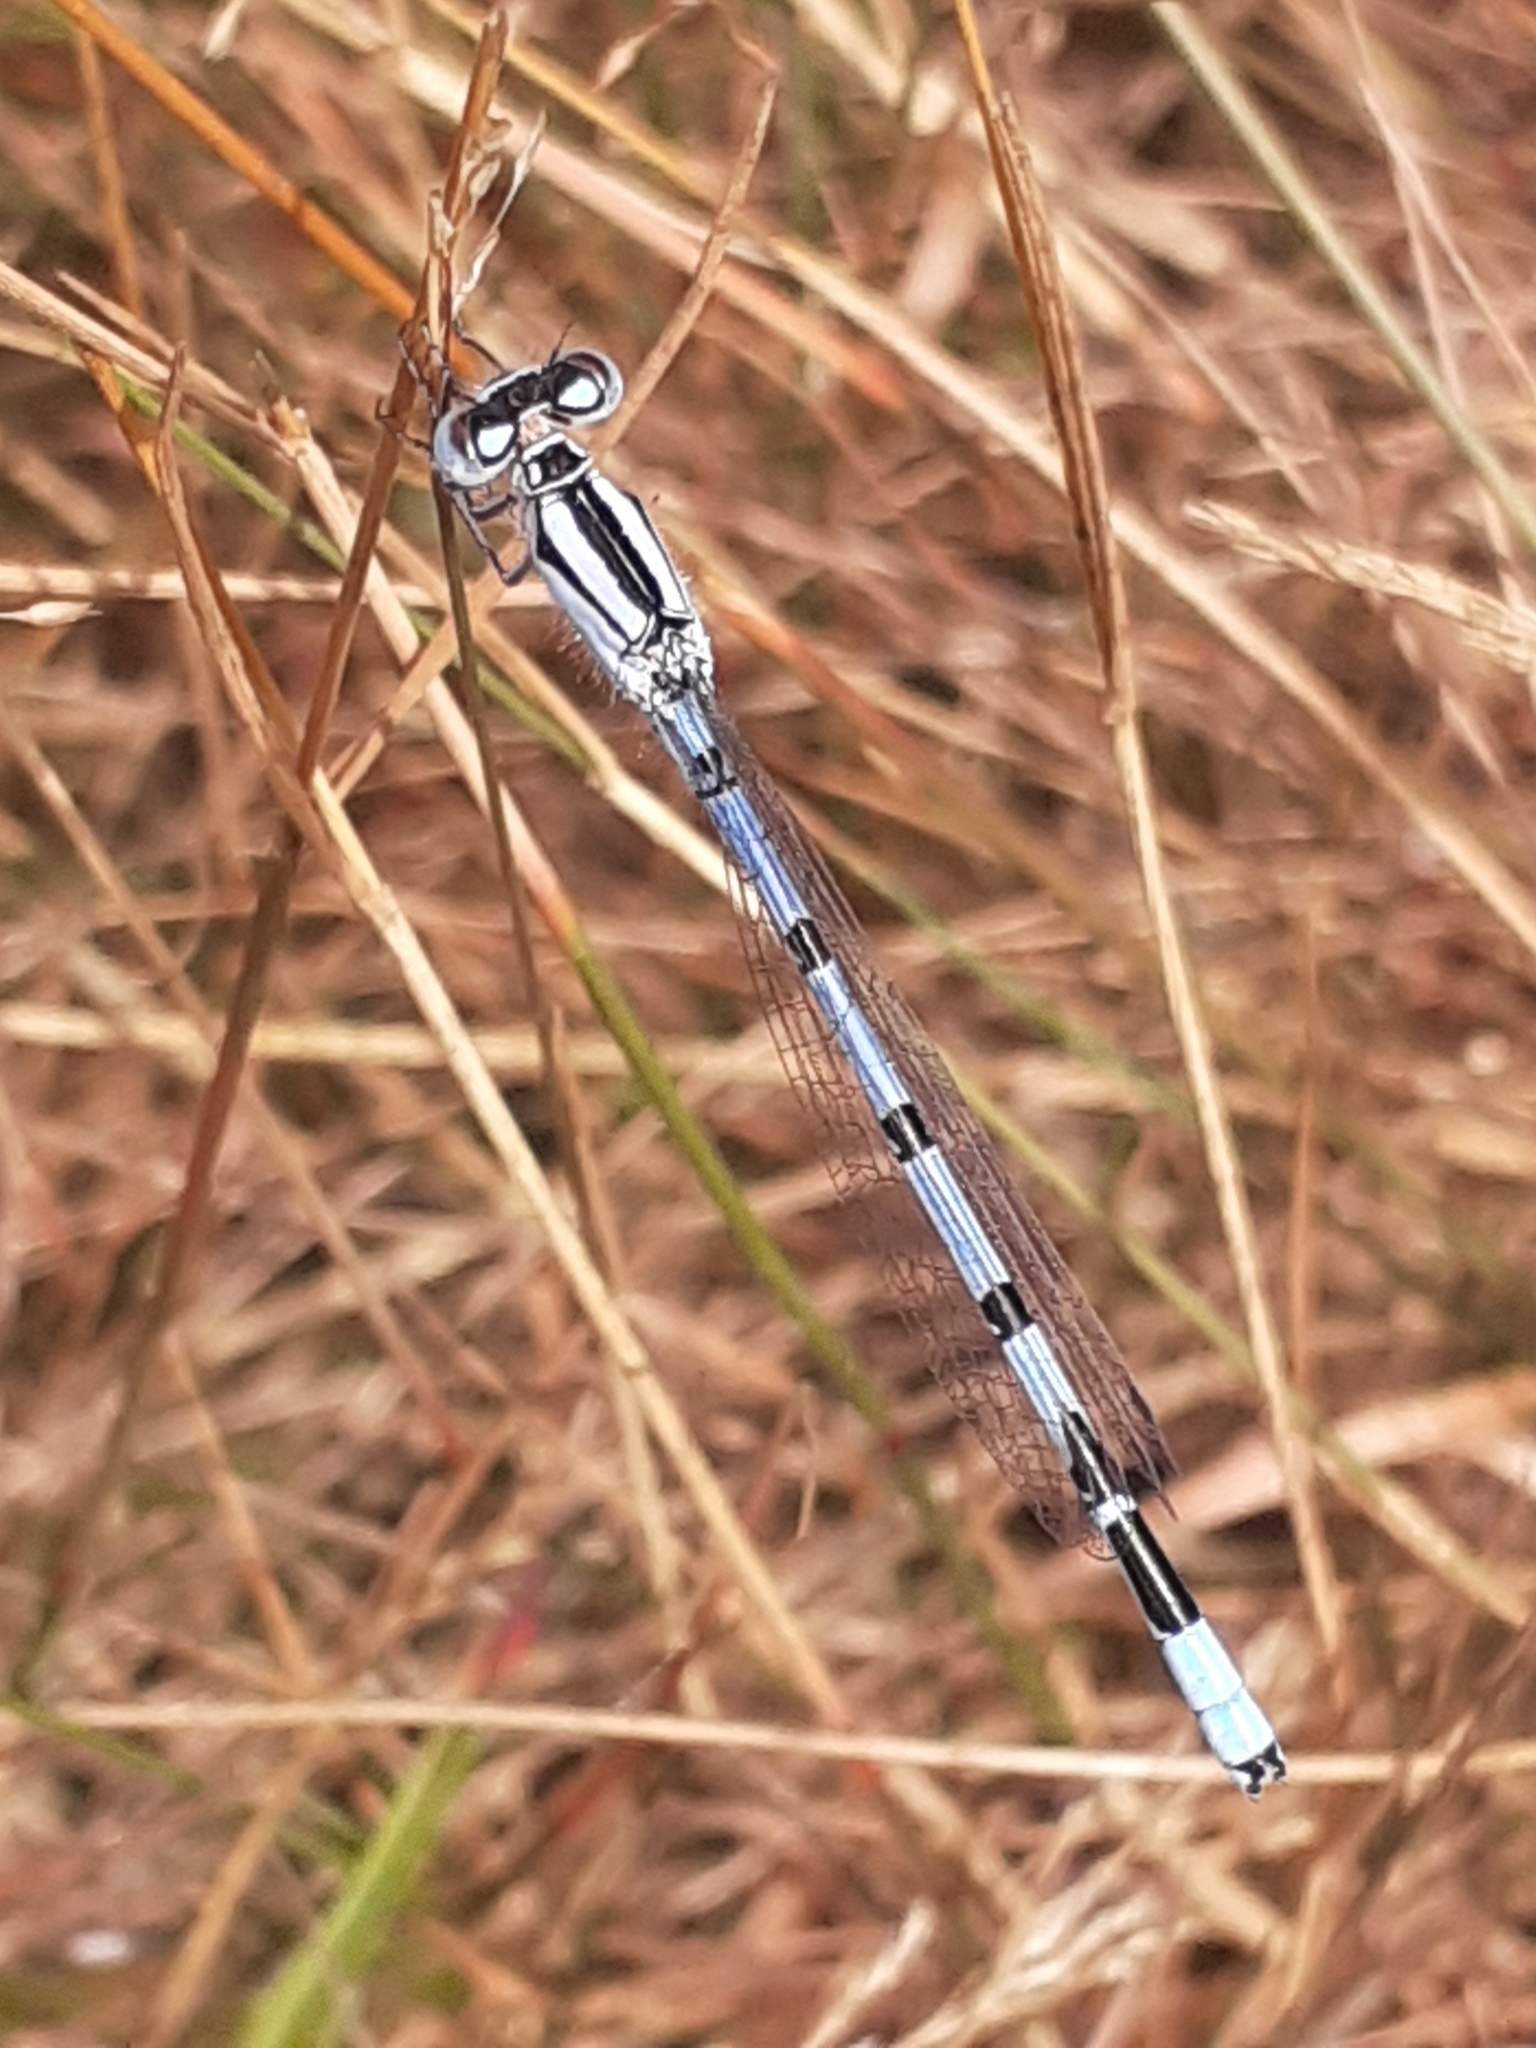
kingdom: Animalia
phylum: Arthropoda
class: Insecta
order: Odonata
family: Coenagrionidae
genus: Enallagma
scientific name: Enallagma cyathigerum
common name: Common blue damselfly
